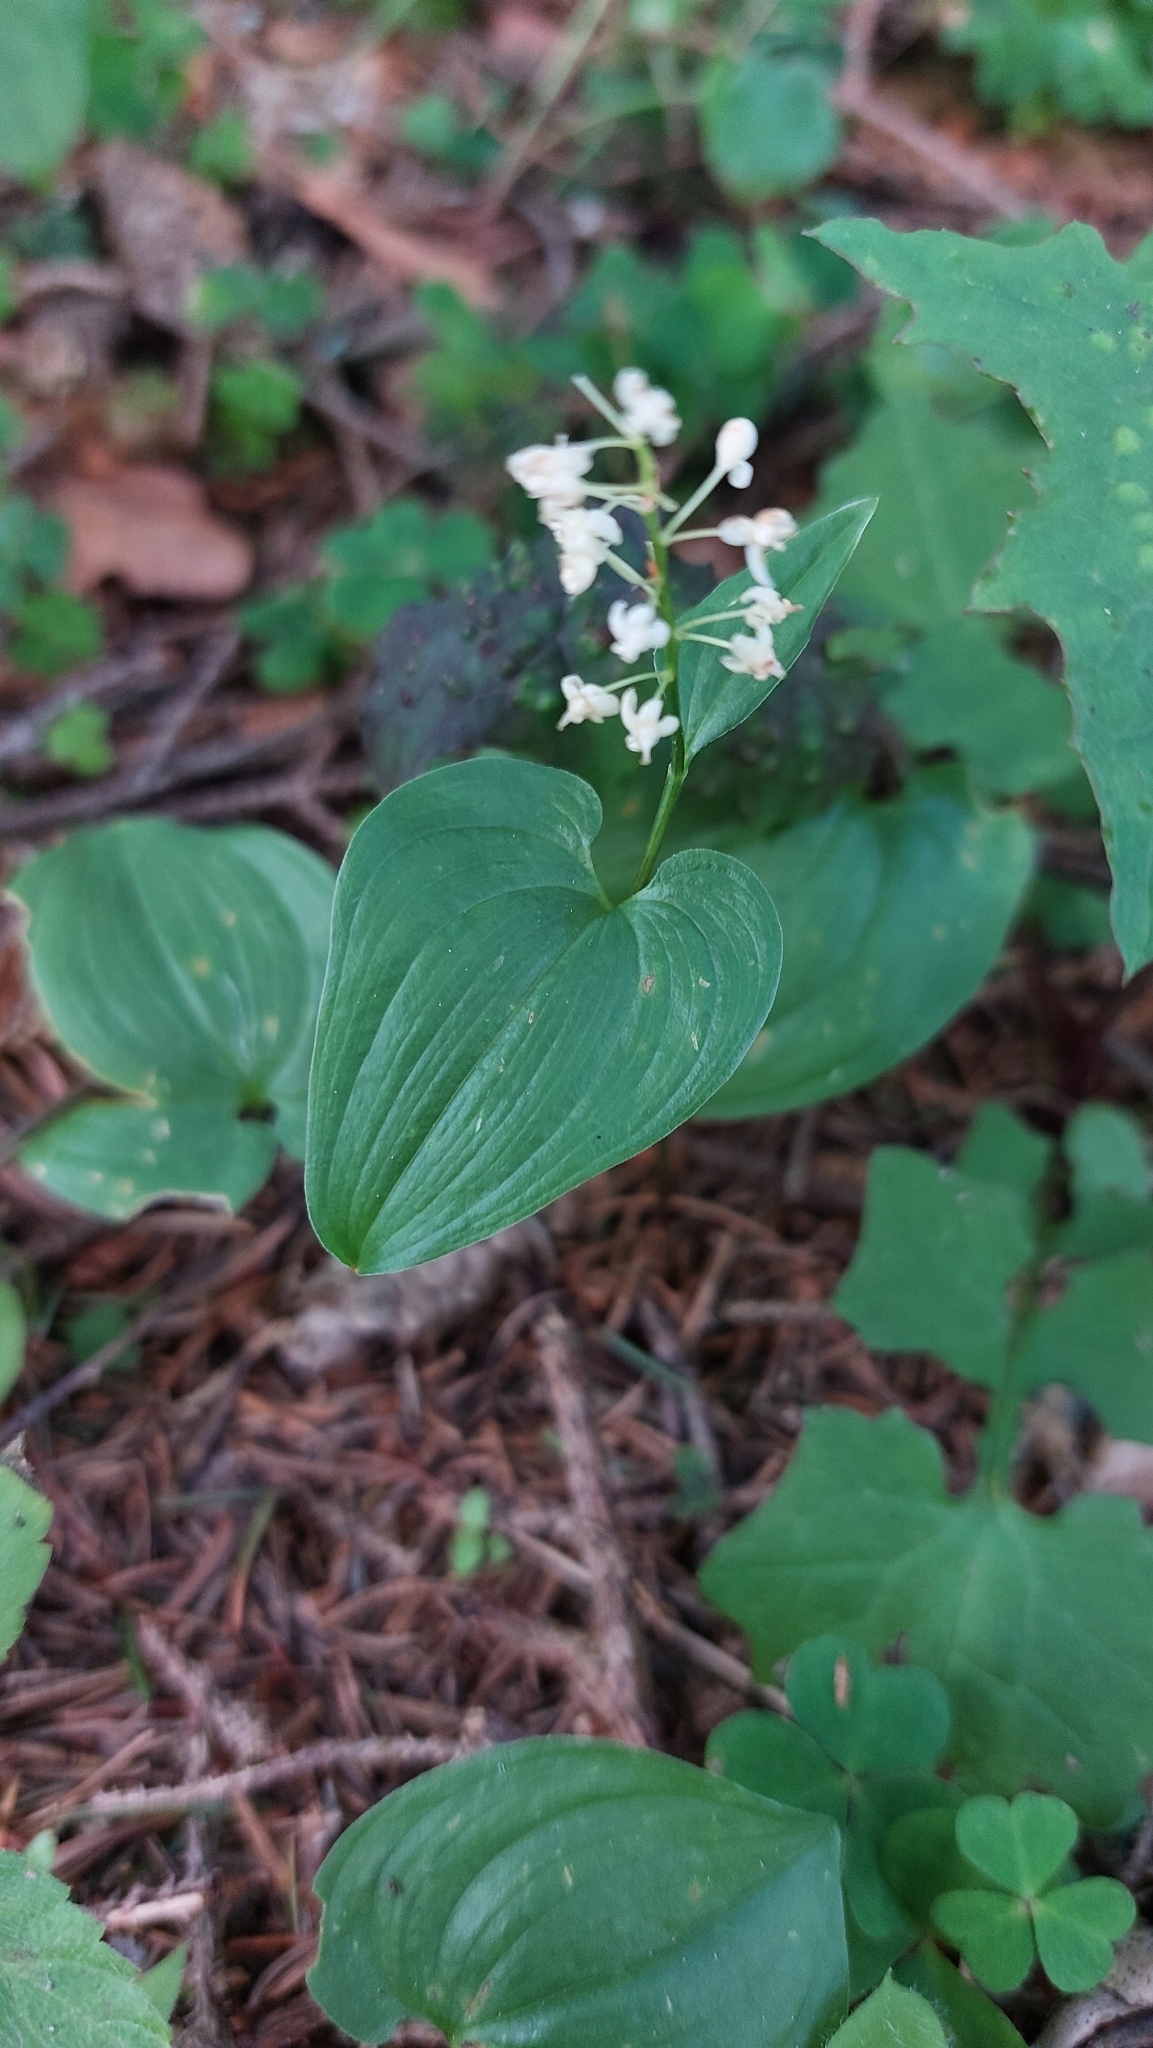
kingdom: Plantae
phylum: Tracheophyta
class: Liliopsida
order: Asparagales
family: Asparagaceae
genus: Maianthemum
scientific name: Maianthemum bifolium
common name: May lily
